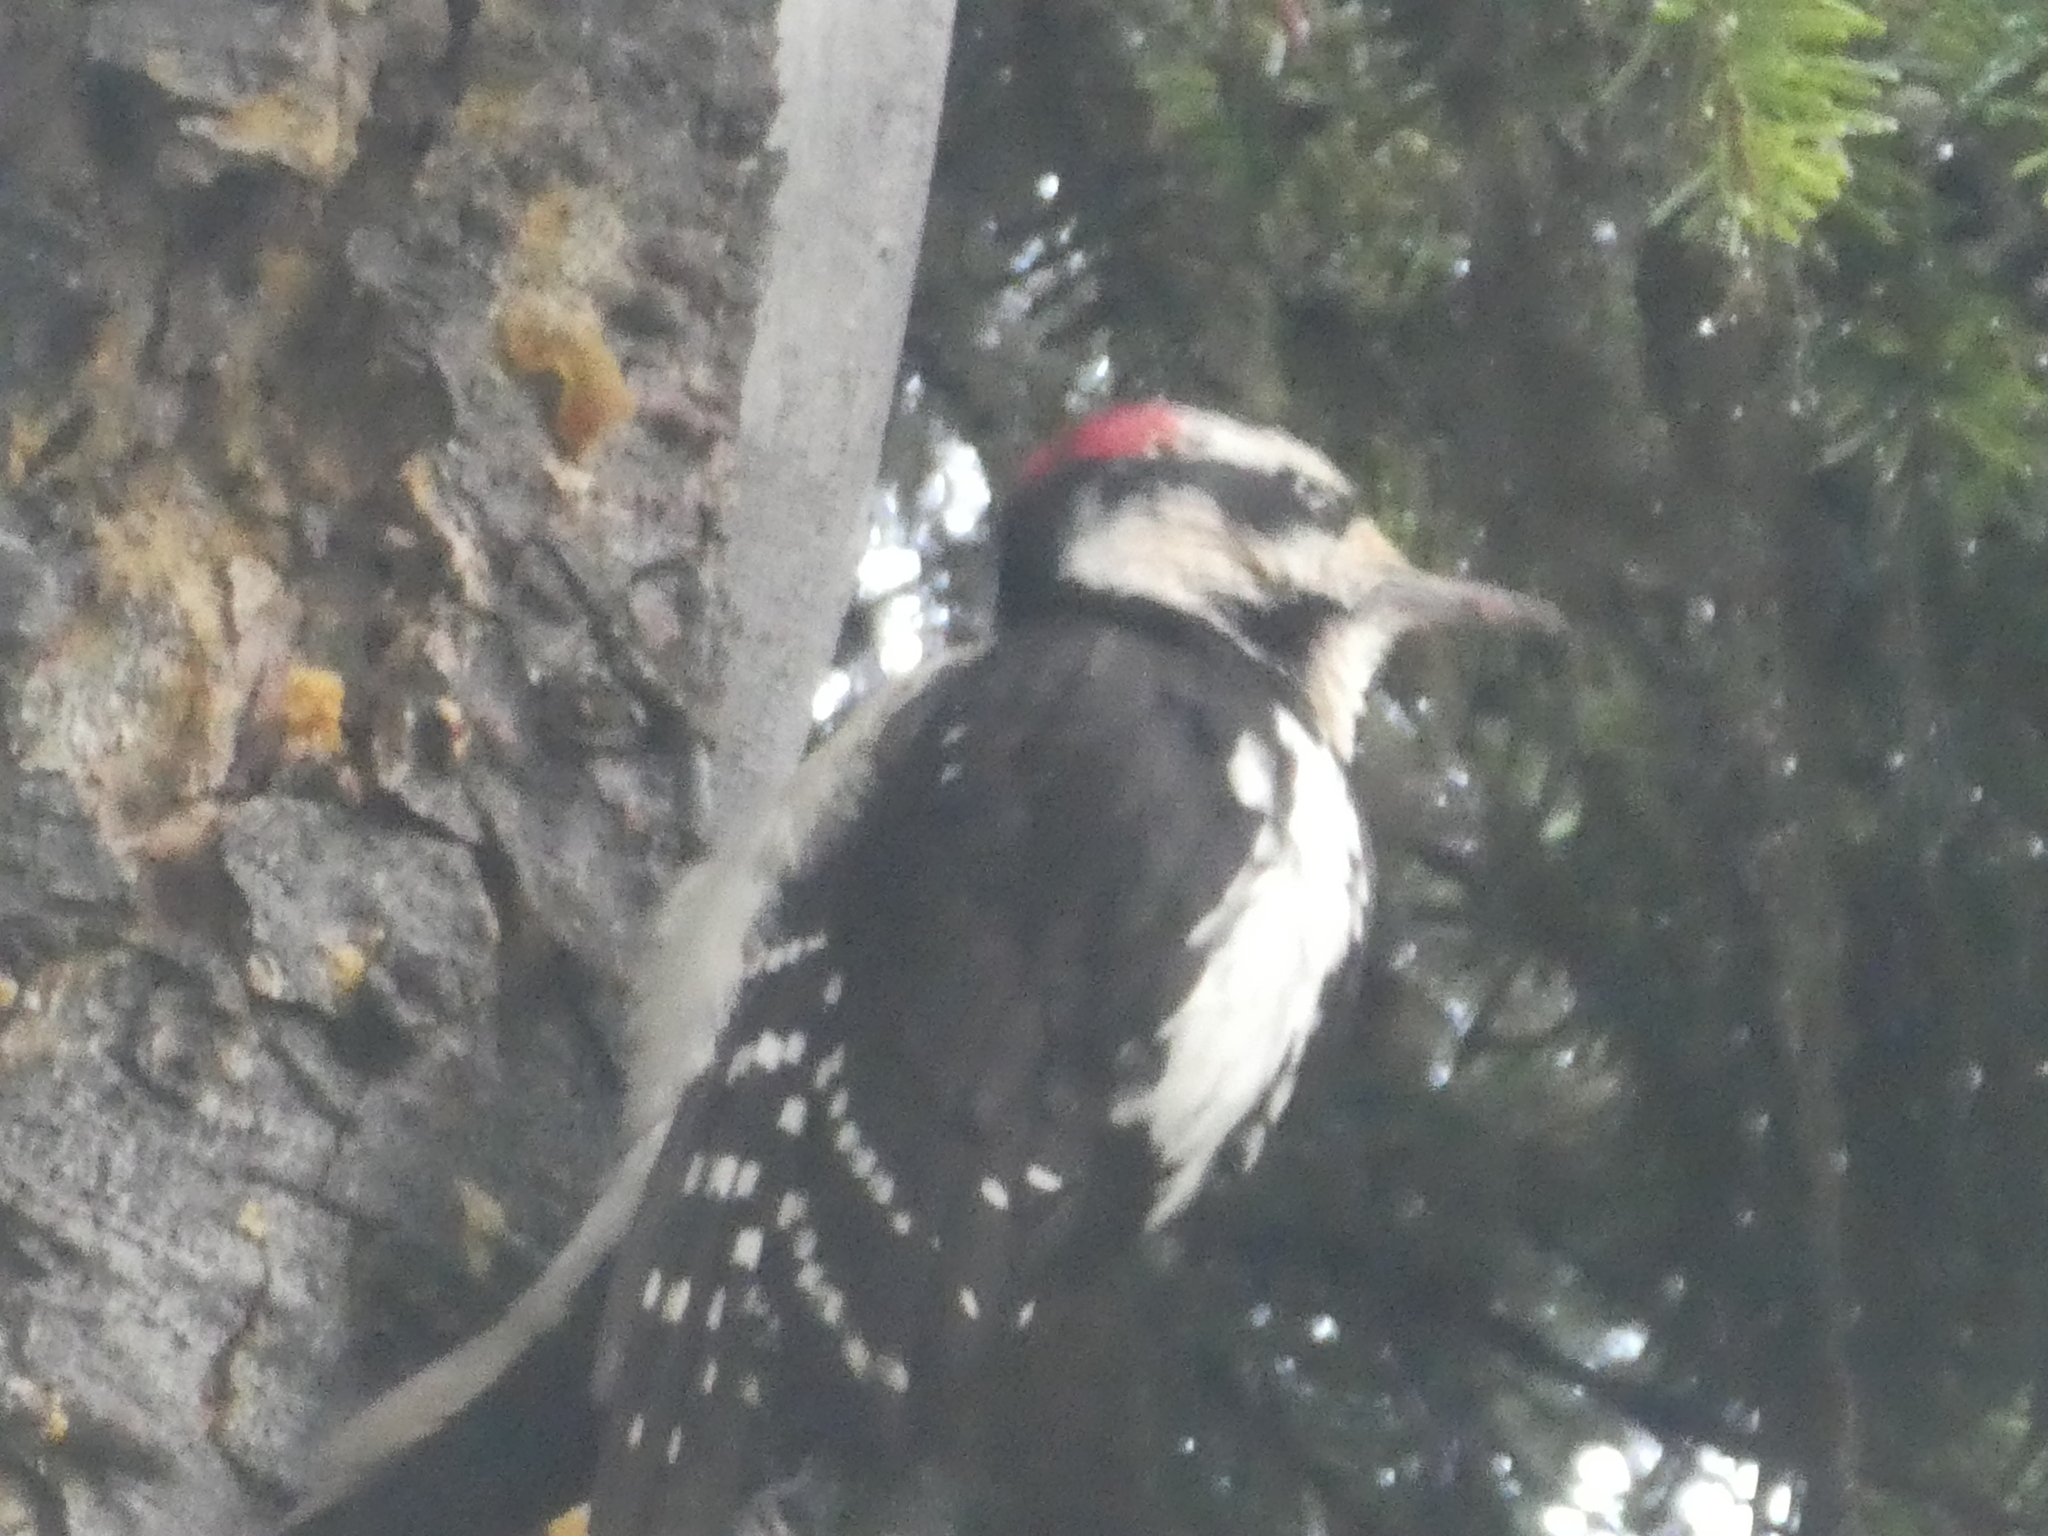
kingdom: Animalia
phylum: Chordata
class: Aves
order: Piciformes
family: Picidae
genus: Leuconotopicus
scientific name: Leuconotopicus villosus
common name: Hairy woodpecker
